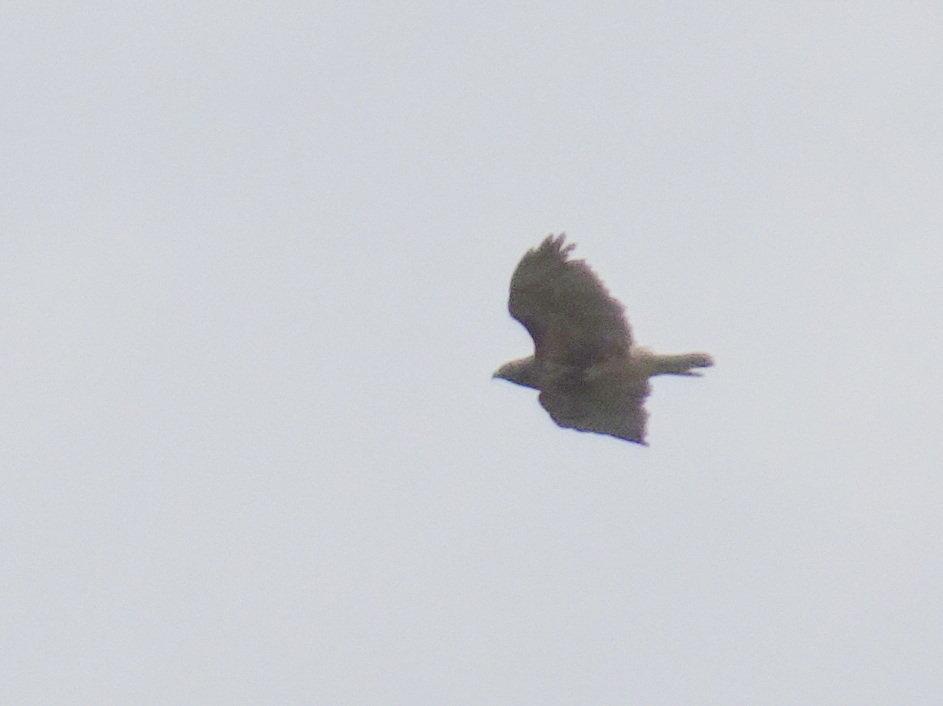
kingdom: Animalia
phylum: Chordata
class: Aves
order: Accipitriformes
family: Accipitridae
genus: Buteo
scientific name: Buteo jamaicensis
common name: Red-tailed hawk
